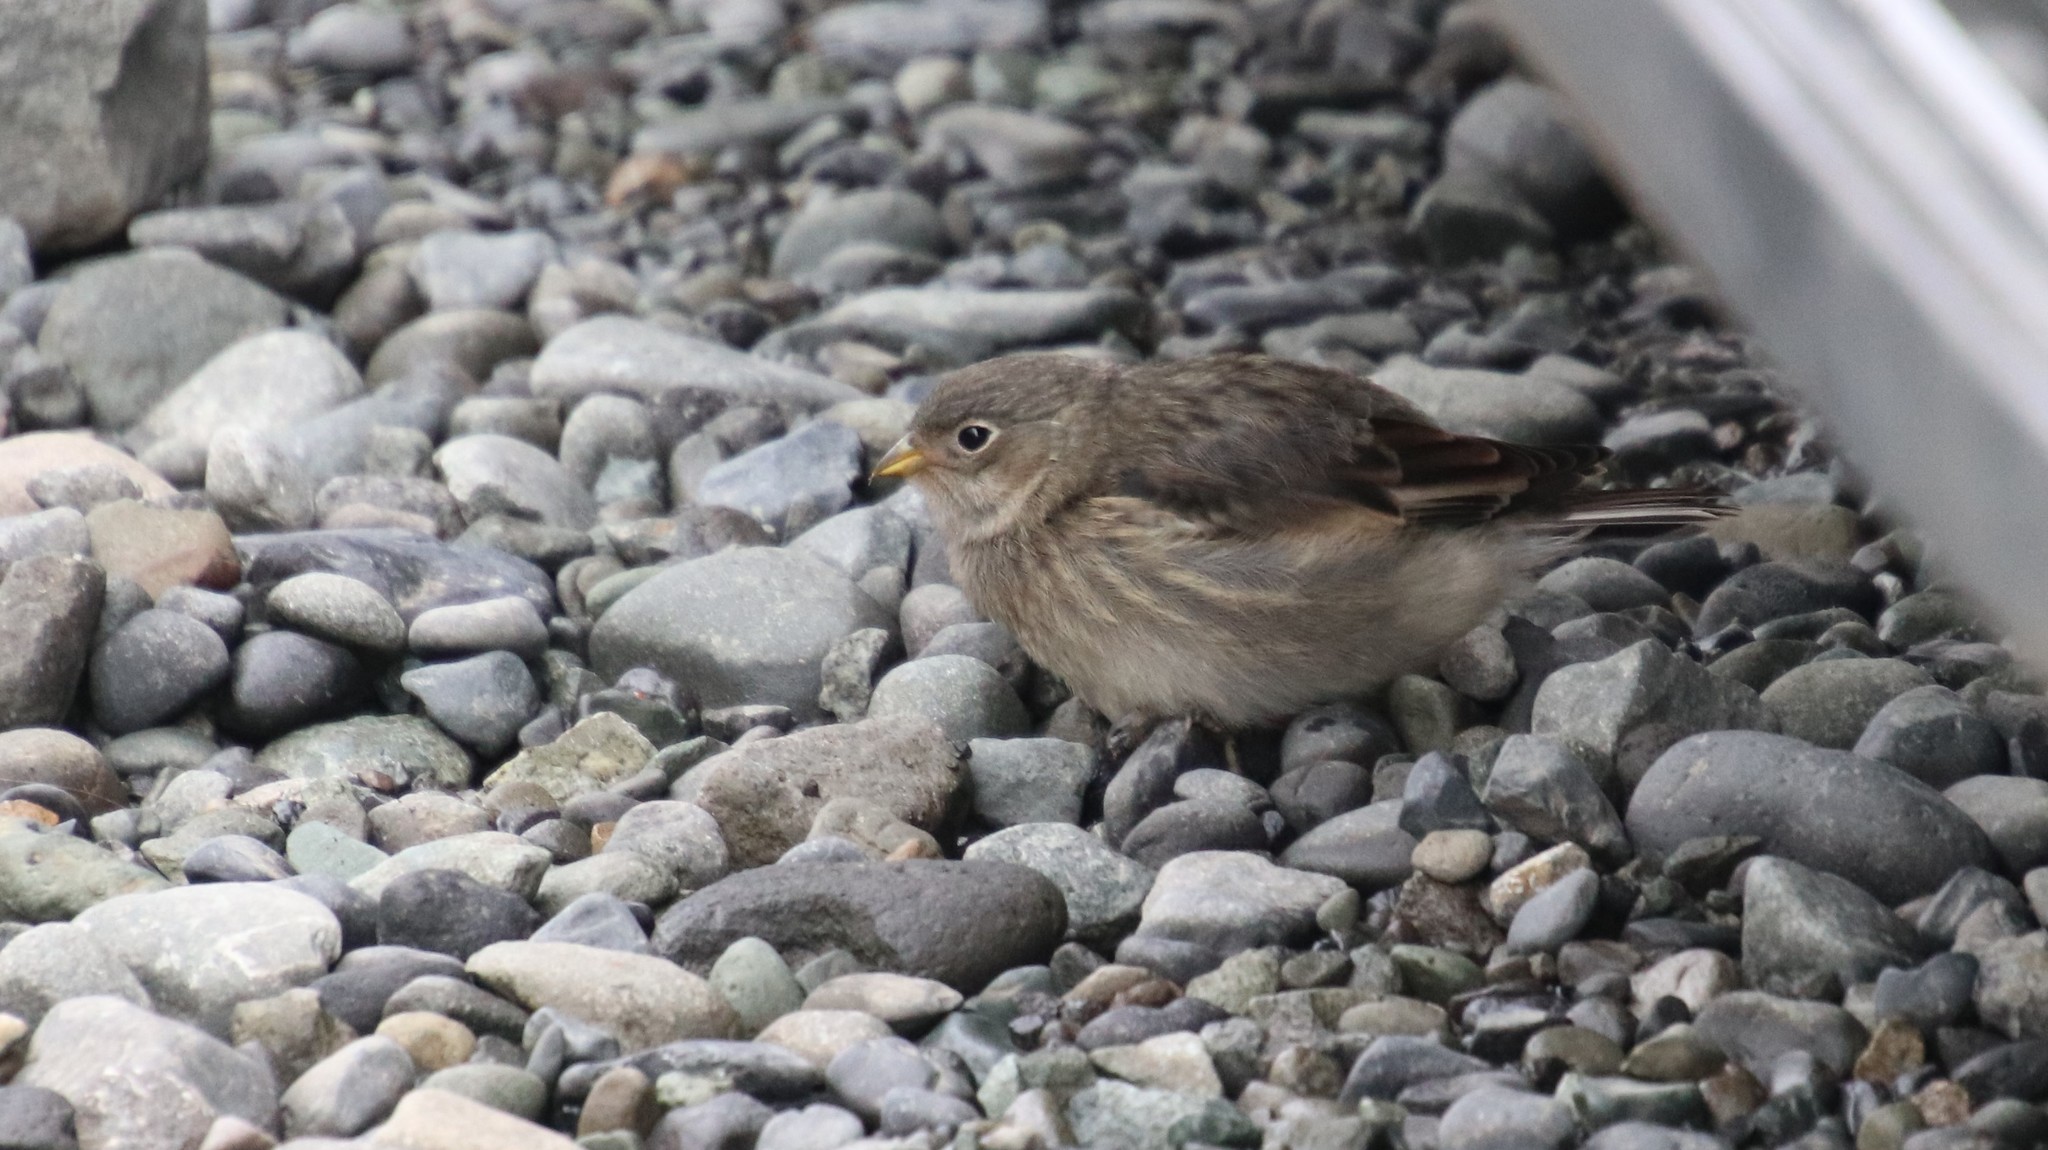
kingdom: Animalia
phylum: Chordata
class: Aves
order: Passeriformes
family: Calcariidae
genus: Plectrophenax
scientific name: Plectrophenax nivalis
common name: Snow bunting
